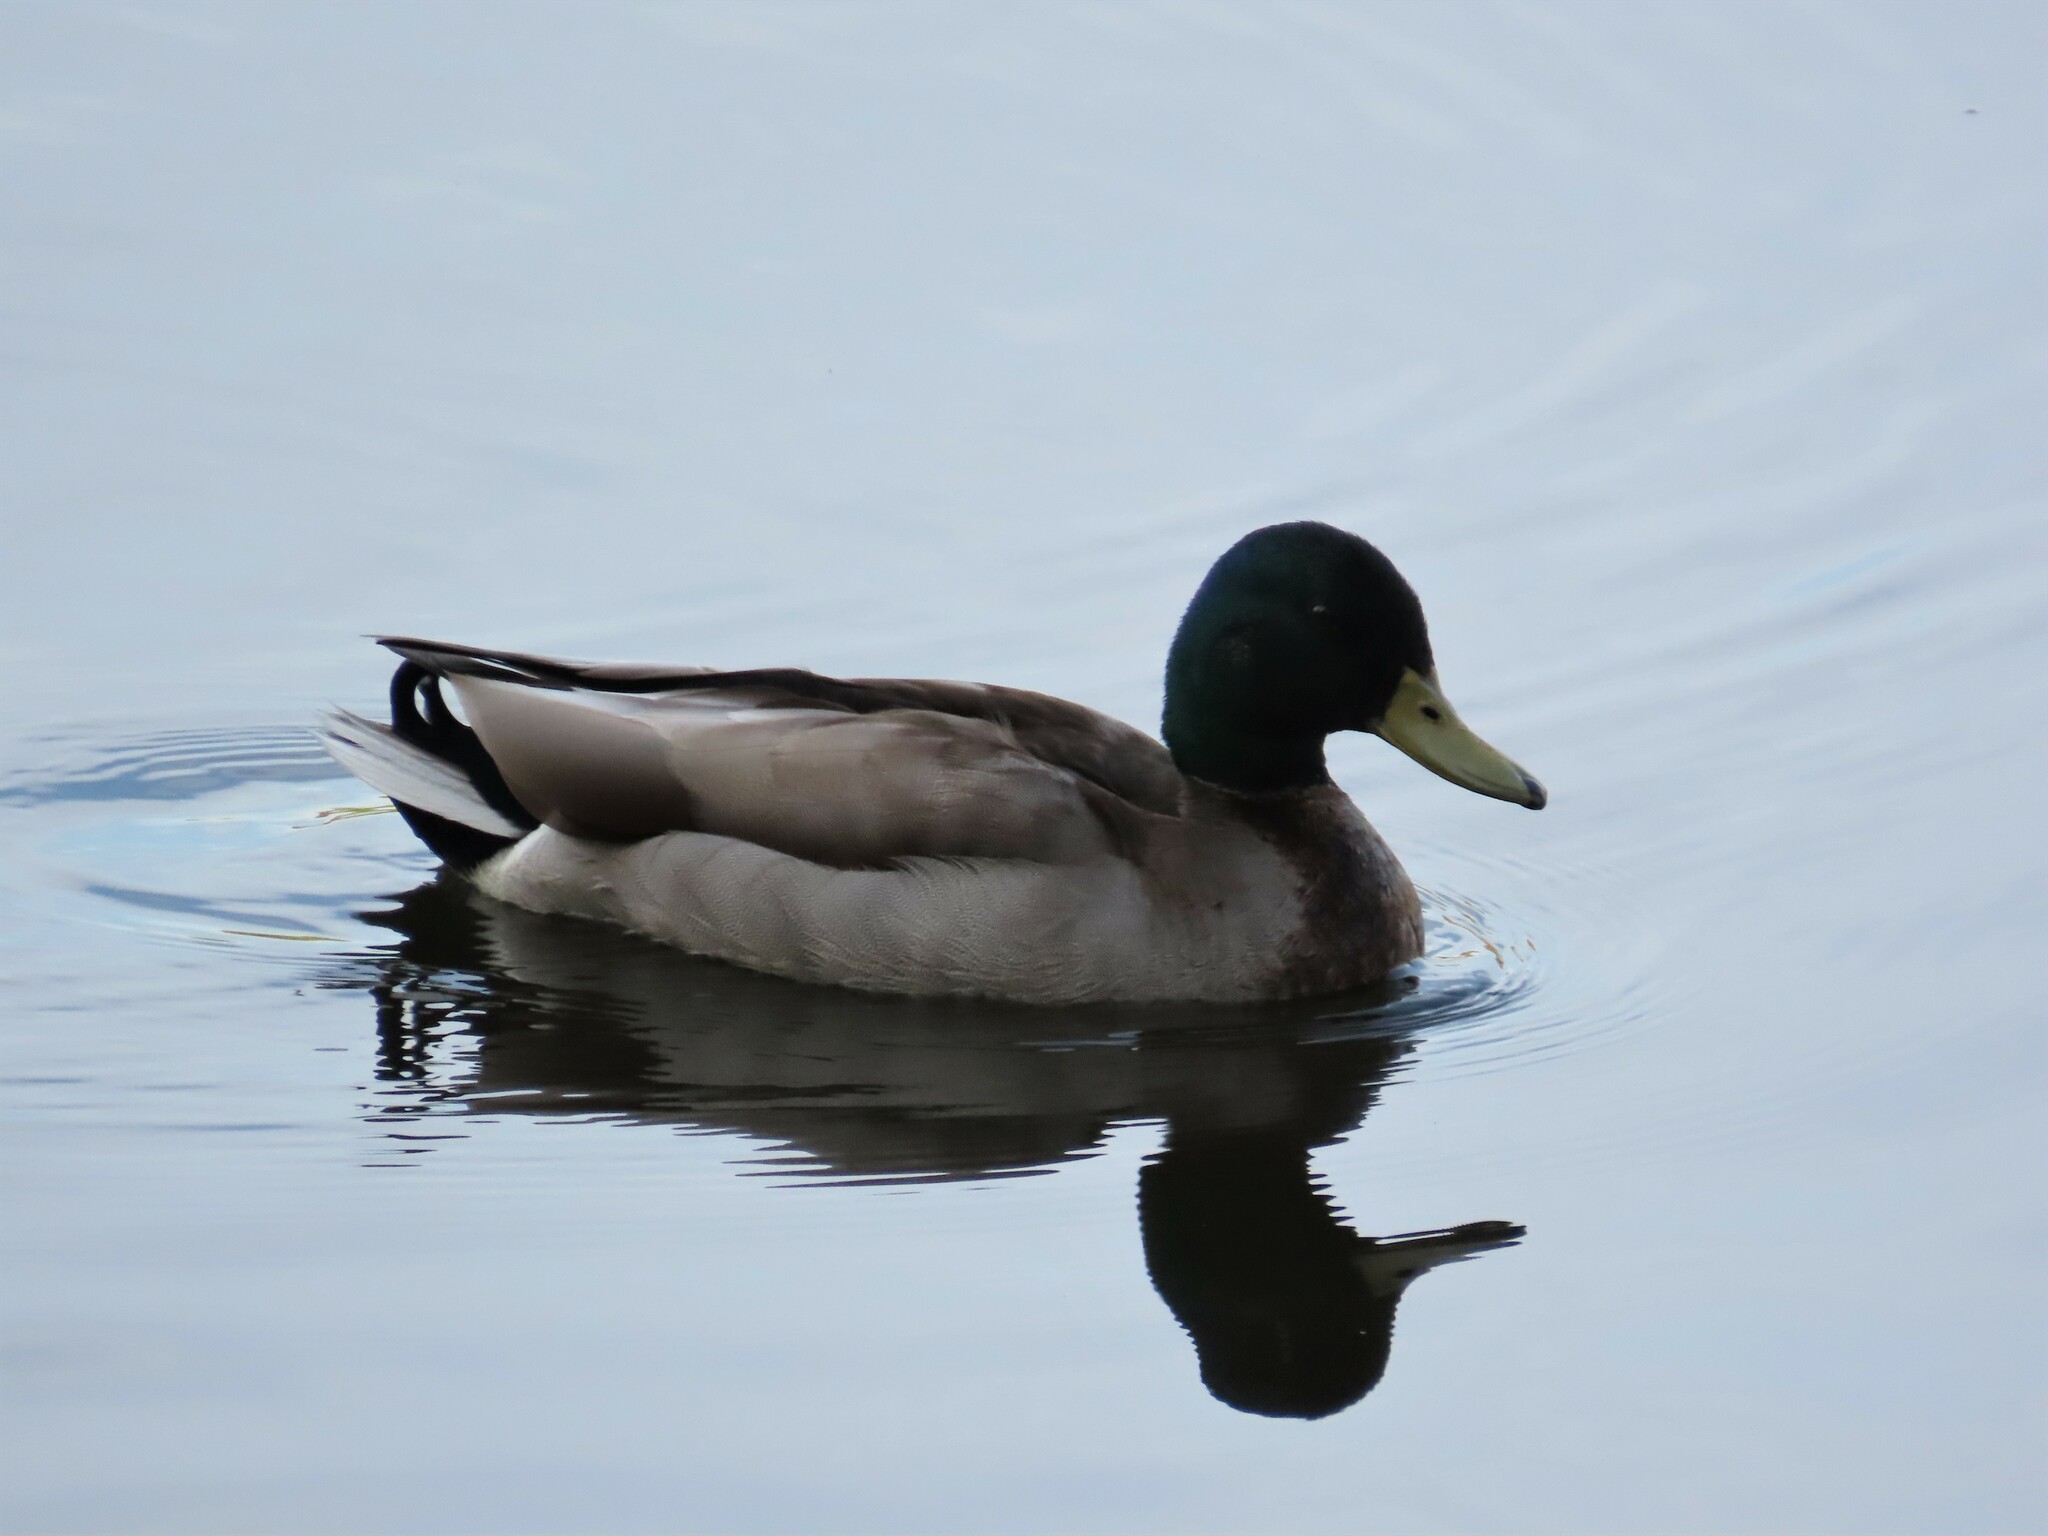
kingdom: Animalia
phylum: Chordata
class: Aves
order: Anseriformes
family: Anatidae
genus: Anas
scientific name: Anas platyrhynchos
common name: Mallard
